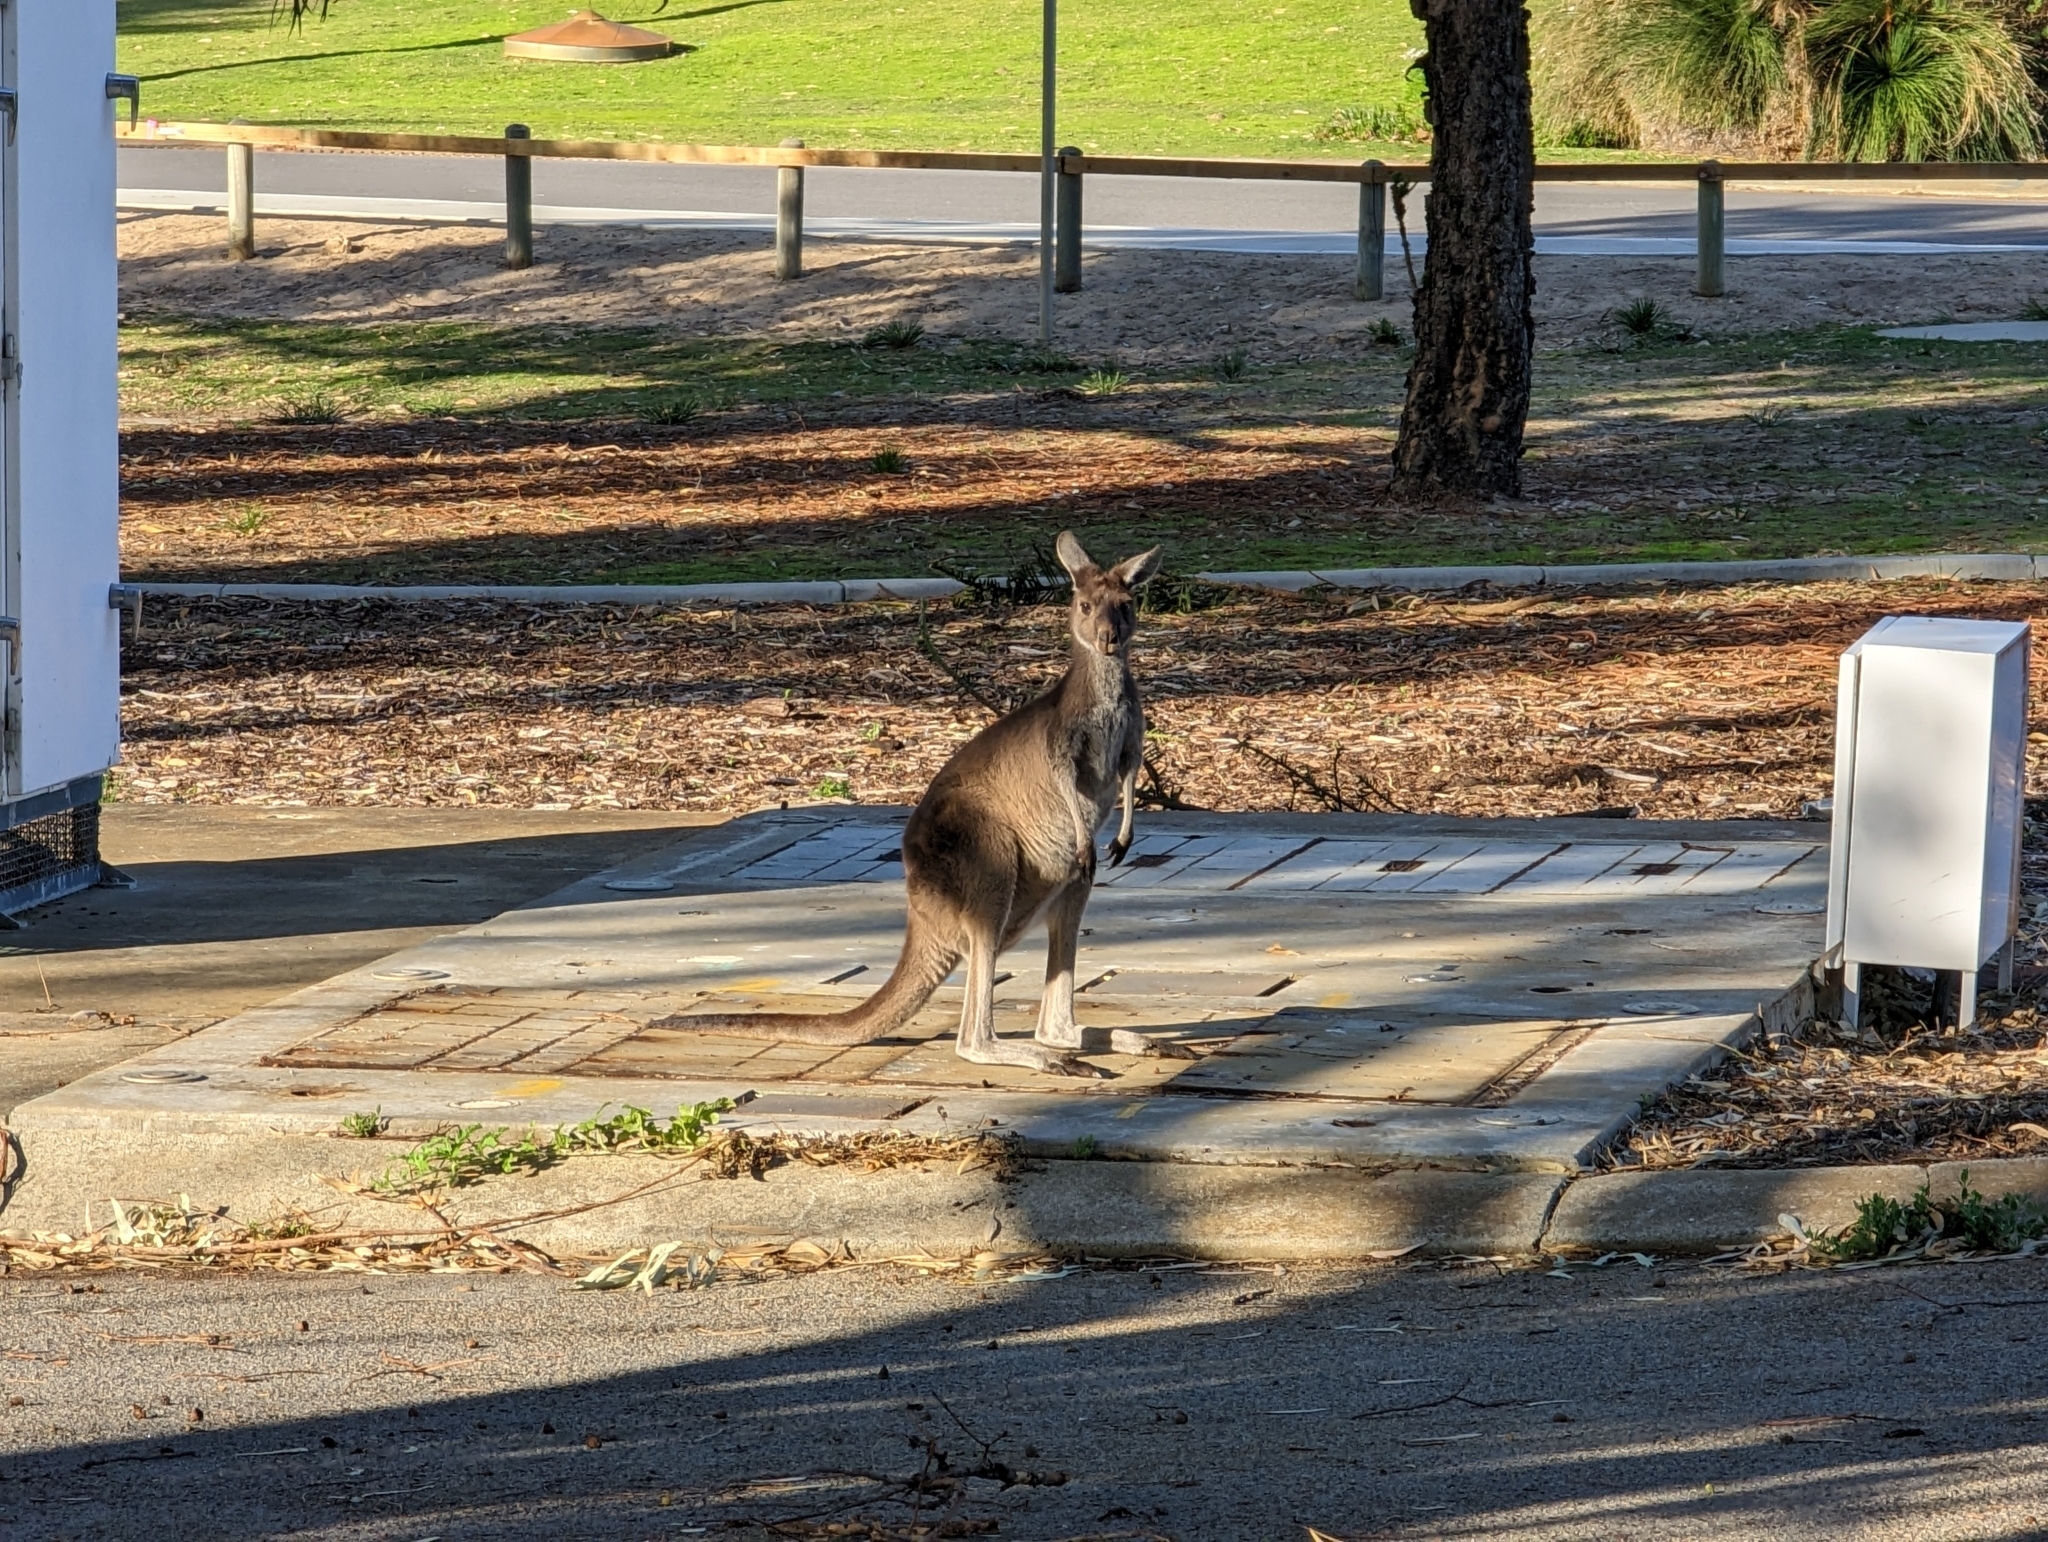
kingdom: Animalia
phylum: Chordata
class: Mammalia
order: Diprotodontia
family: Macropodidae
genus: Macropus
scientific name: Macropus fuliginosus
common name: Western grey kangaroo
